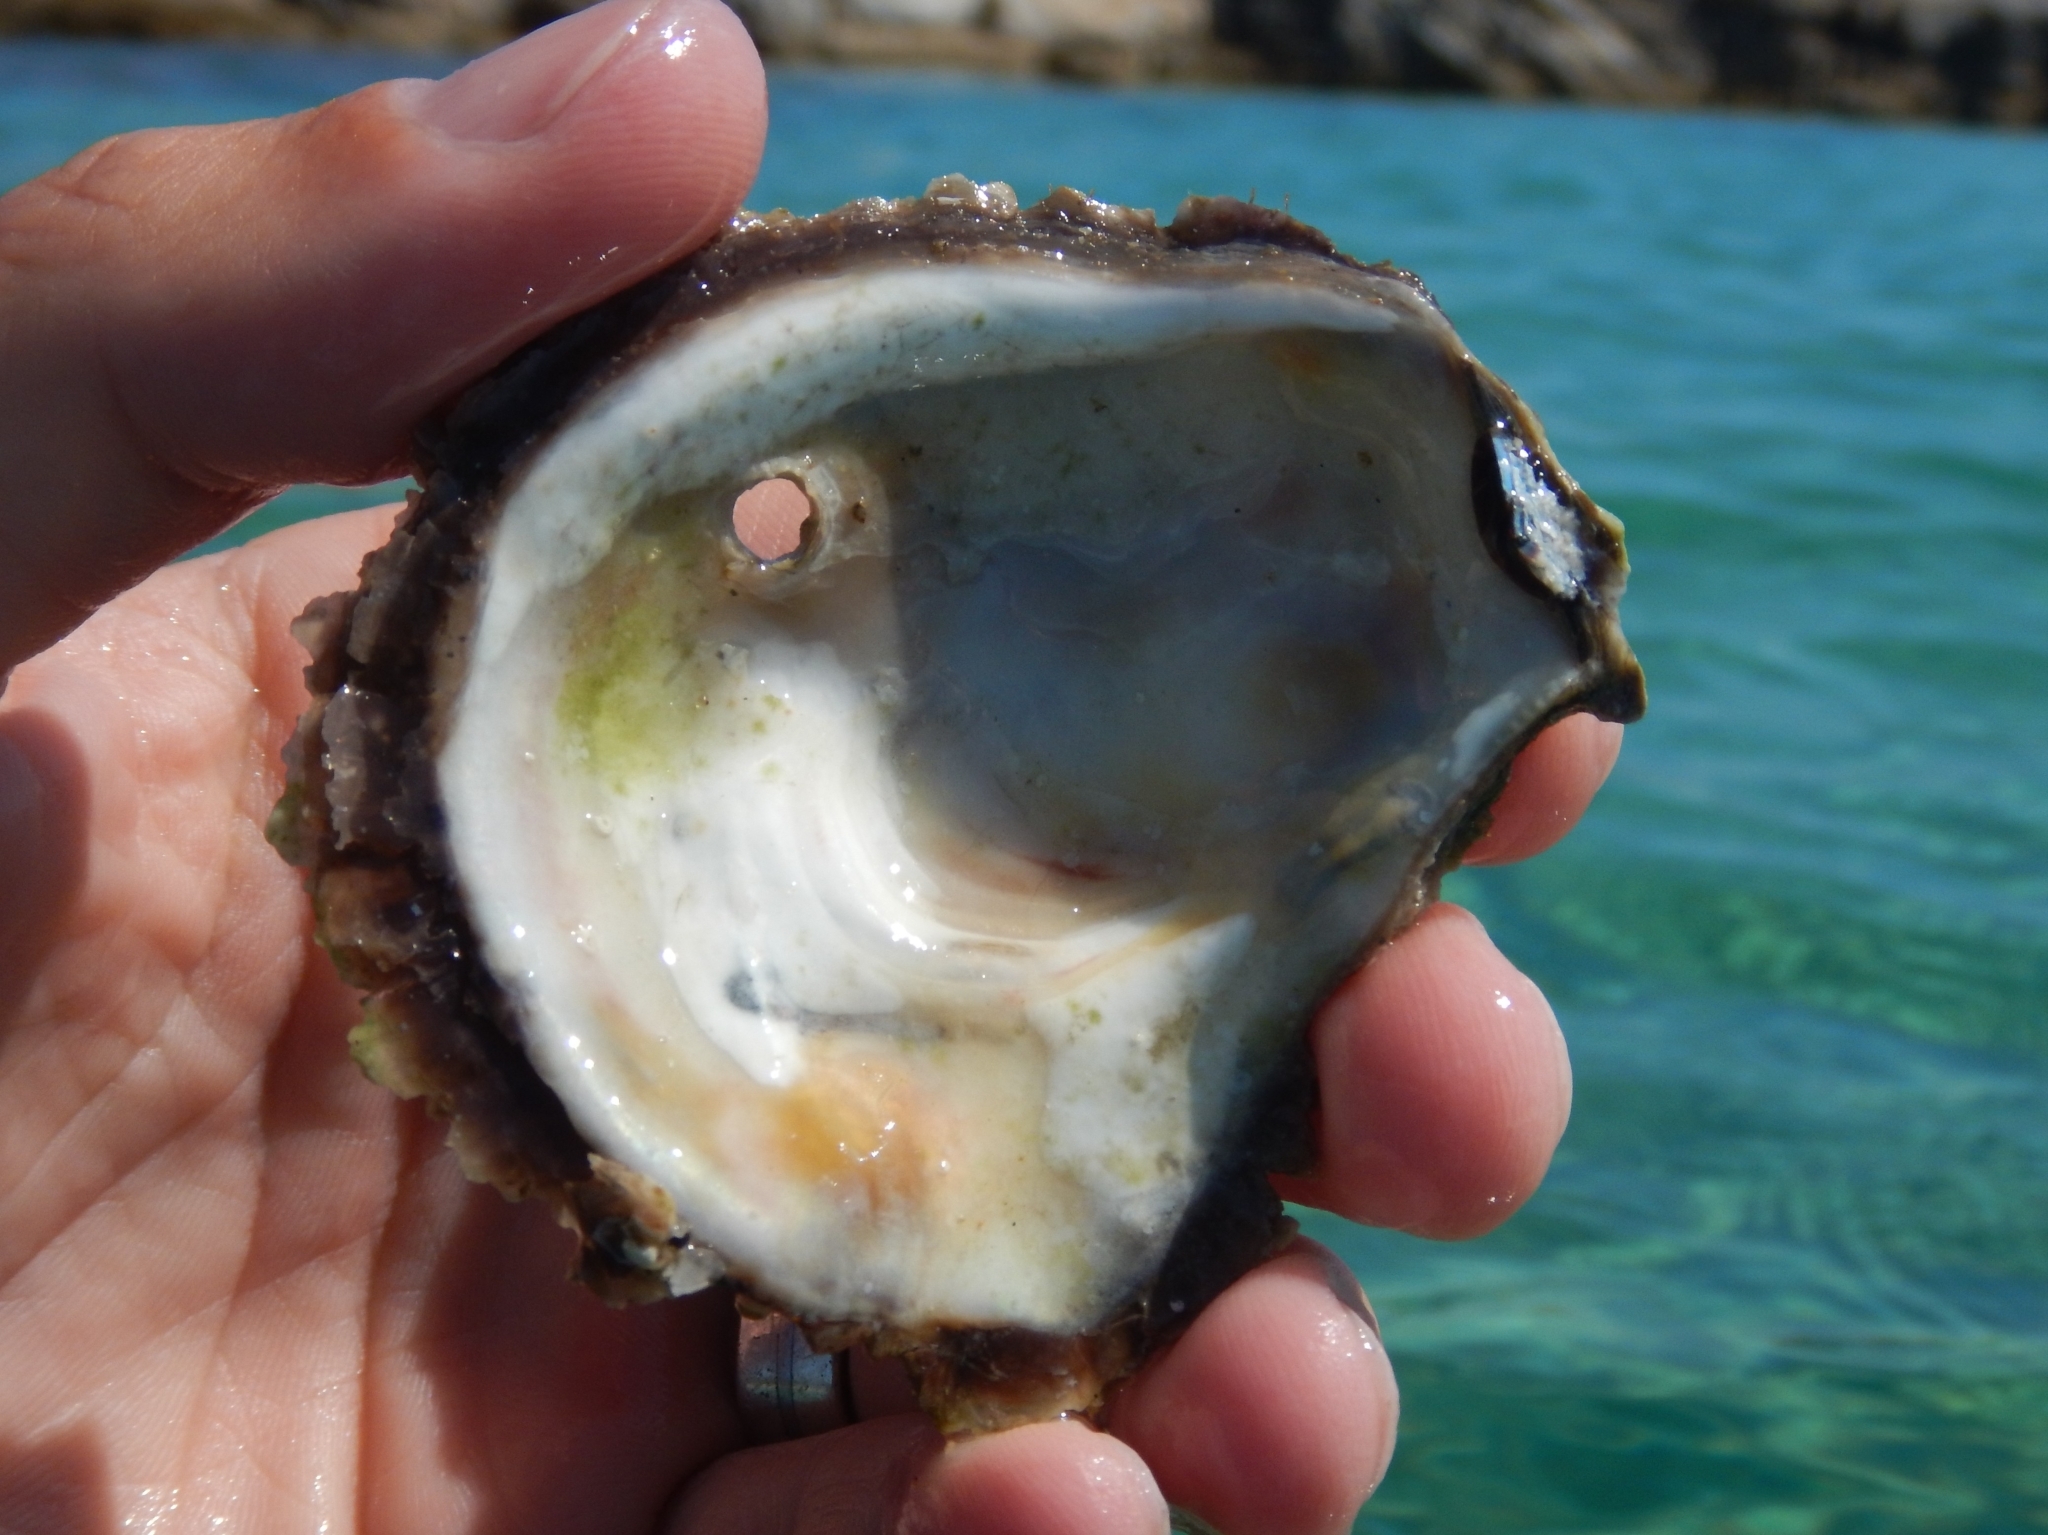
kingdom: Animalia
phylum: Mollusca
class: Bivalvia
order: Ostreida
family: Ostreidae
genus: Ostrea
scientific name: Ostrea edulis
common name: Flat oyster
